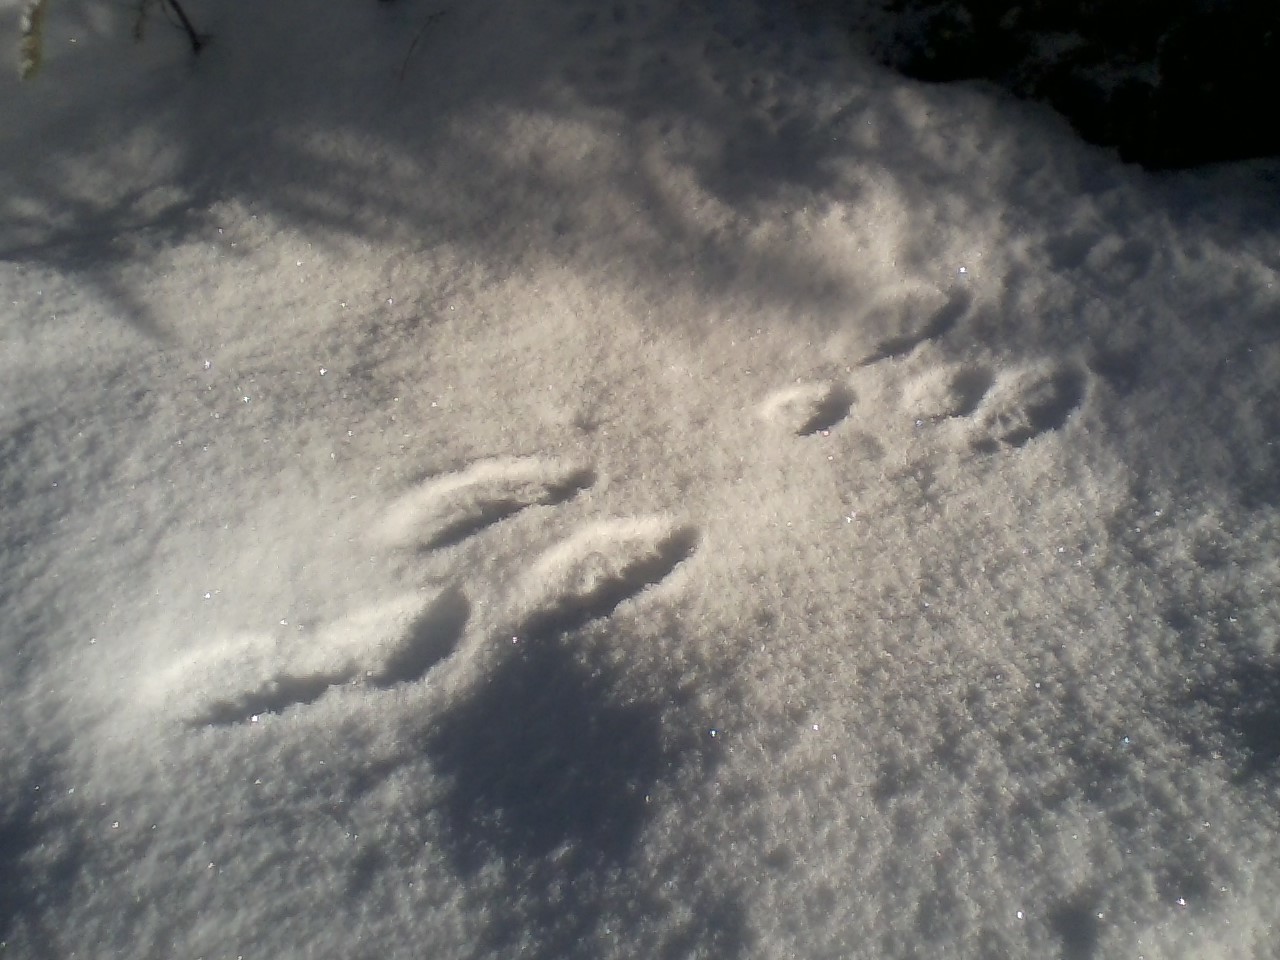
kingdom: Animalia
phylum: Chordata
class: Mammalia
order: Lagomorpha
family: Leporidae
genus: Lepus
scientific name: Lepus americanus
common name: Snowshoe hare
